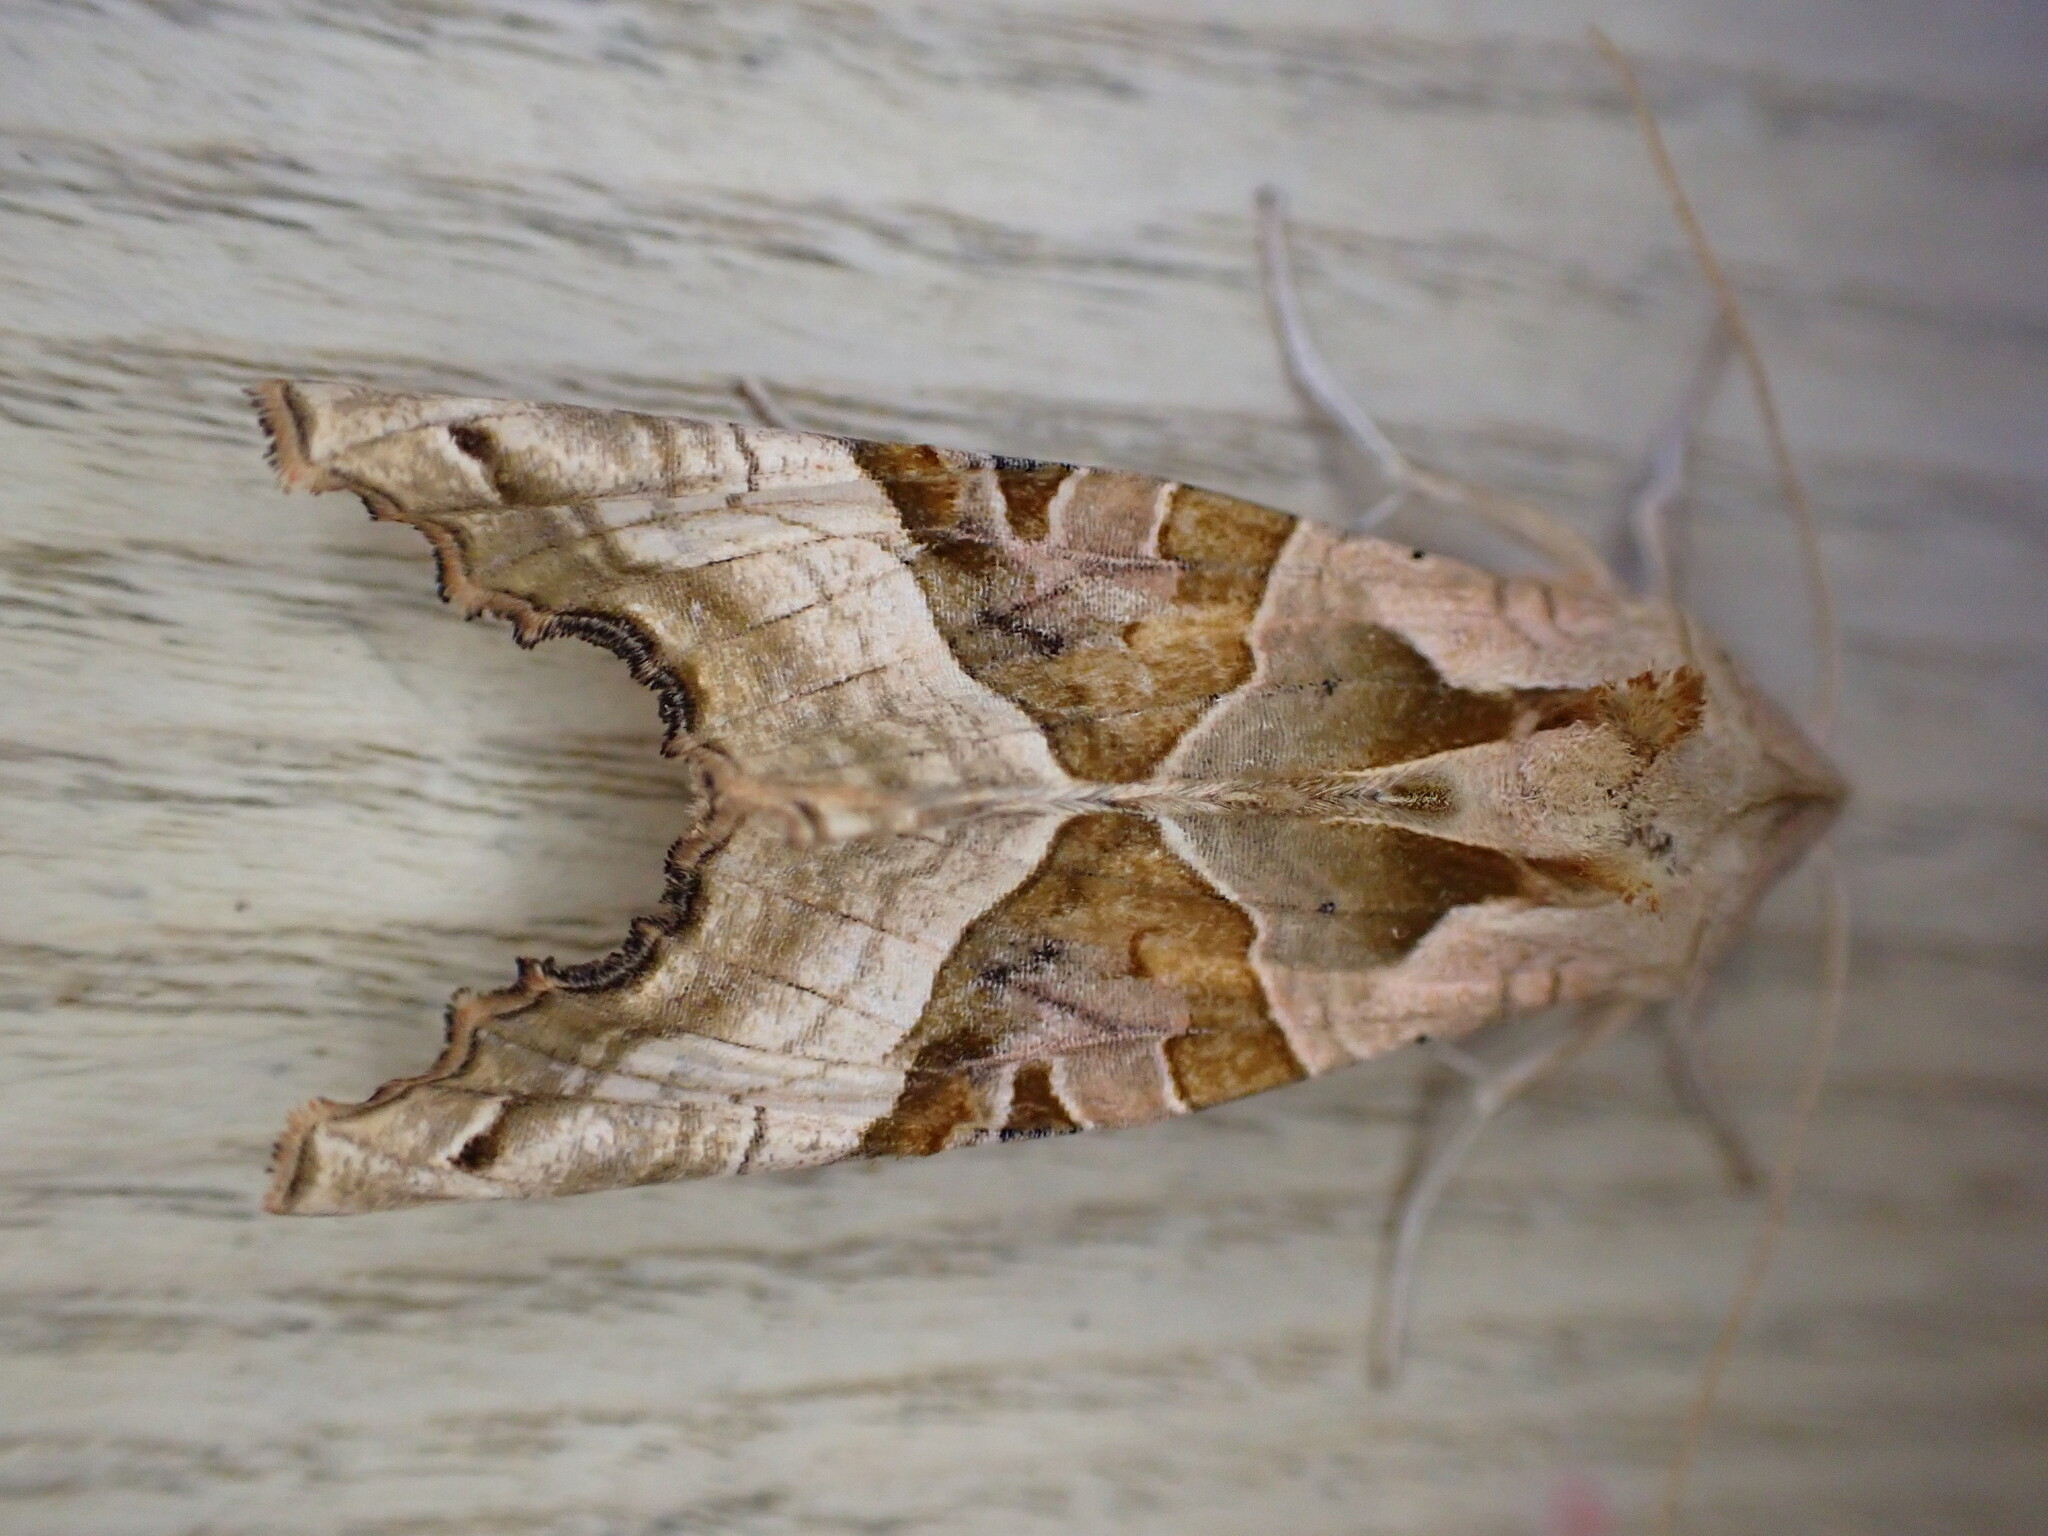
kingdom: Animalia
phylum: Arthropoda
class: Insecta
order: Lepidoptera
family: Noctuidae
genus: Phlogophora
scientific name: Phlogophora meticulosa
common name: Angle shades
